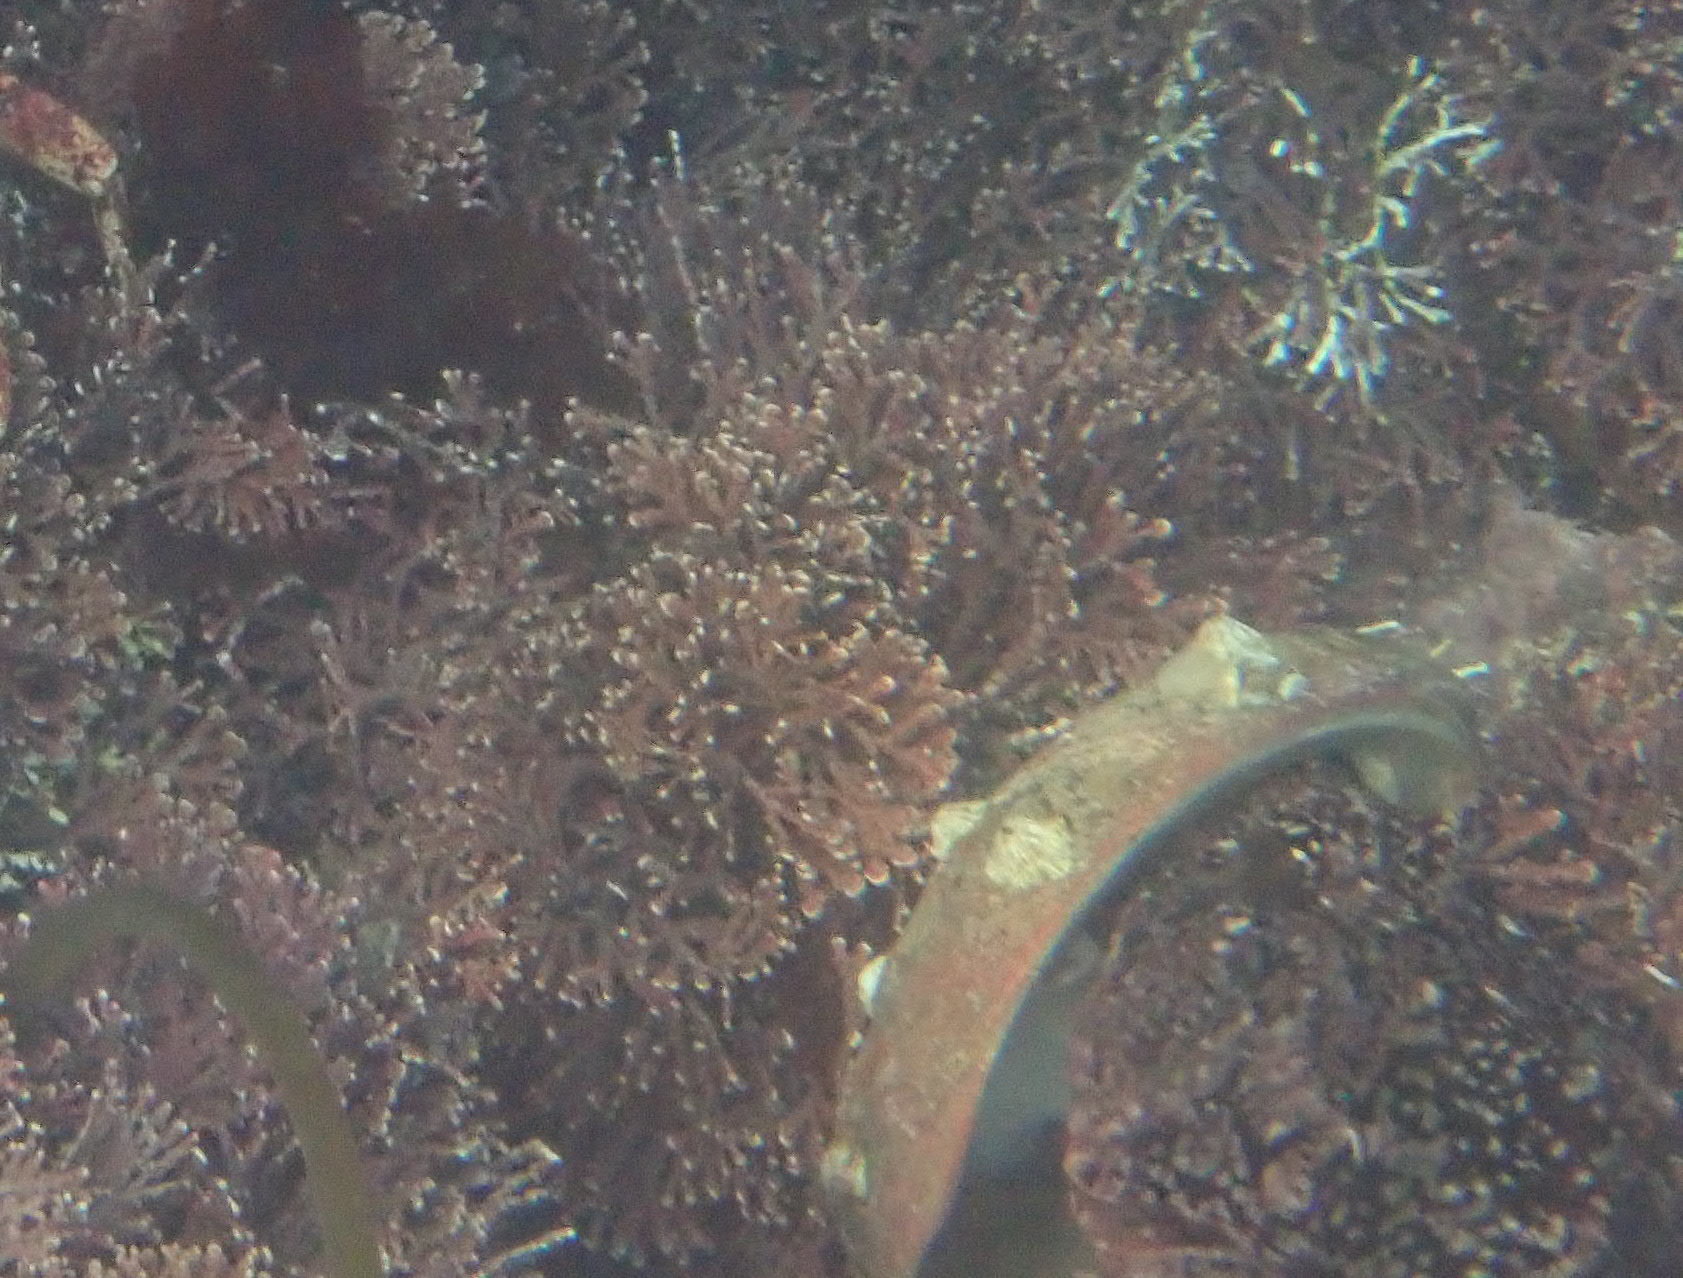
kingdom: Animalia
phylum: Chordata
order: Scorpaeniformes
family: Cottidae
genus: Scorpaenichthys
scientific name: Scorpaenichthys marmoratus
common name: Cabezon
